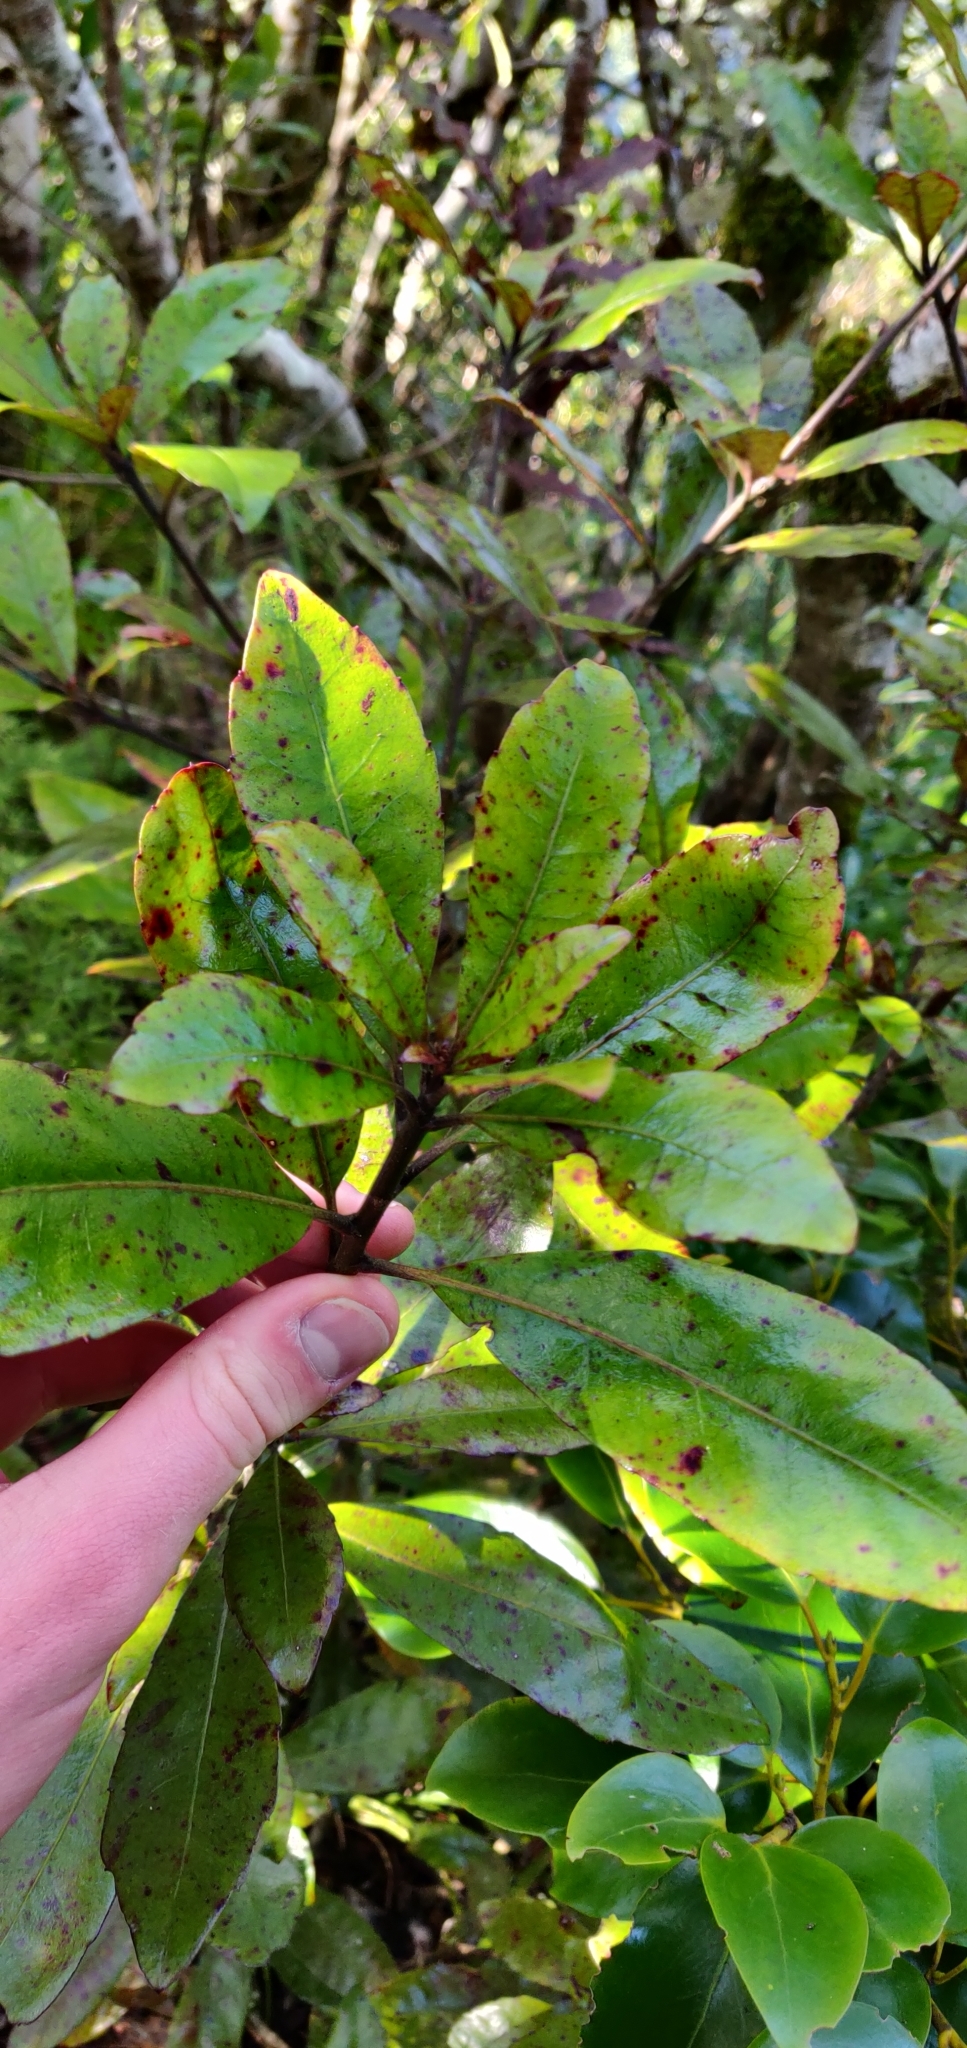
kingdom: Plantae
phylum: Tracheophyta
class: Magnoliopsida
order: Asterales
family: Alseuosmiaceae
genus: Alseuosmia
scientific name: Alseuosmia macrophylla
